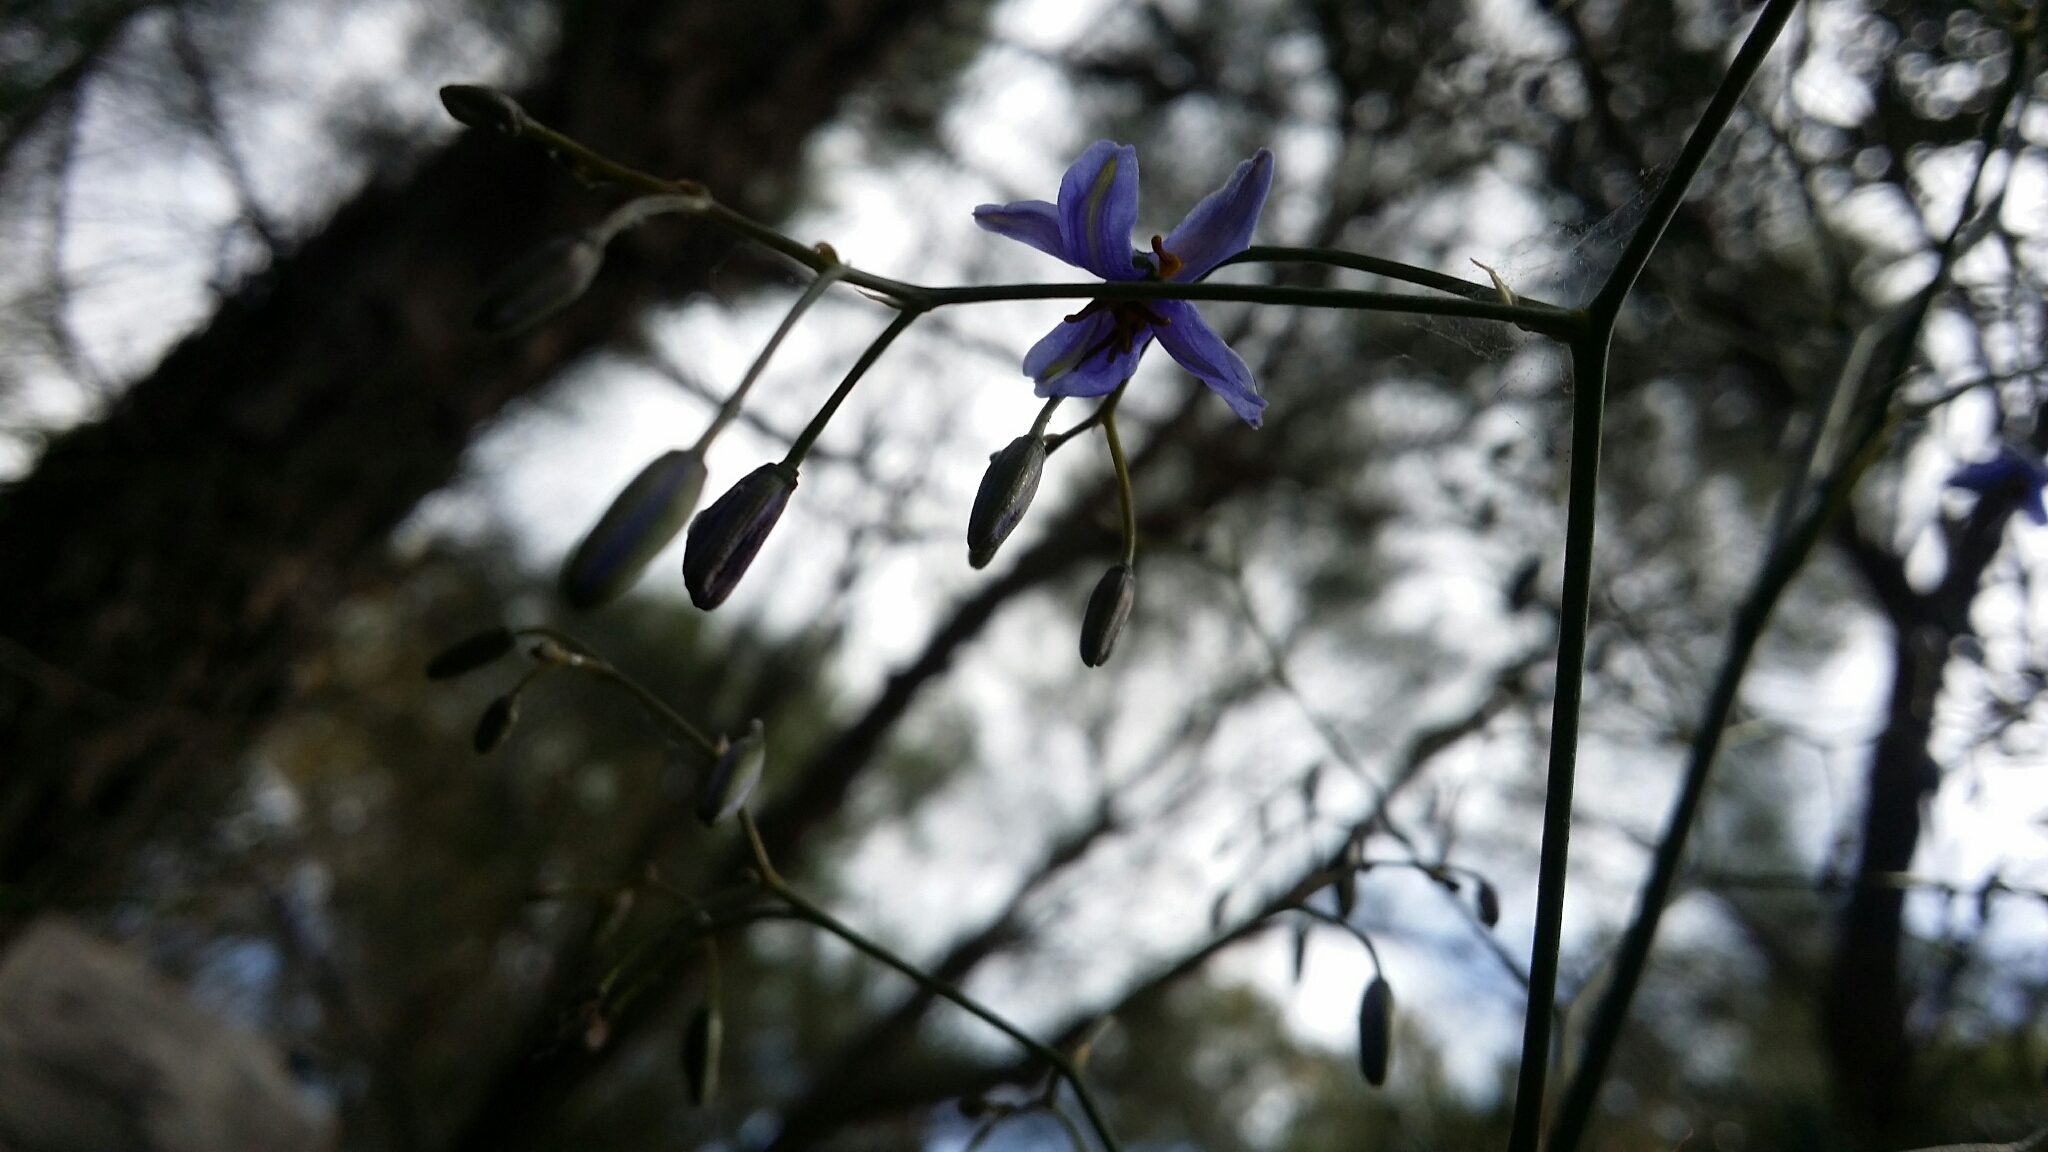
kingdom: Plantae
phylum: Tracheophyta
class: Liliopsida
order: Asparagales
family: Asphodelaceae
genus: Dianella
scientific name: Dianella revoluta
